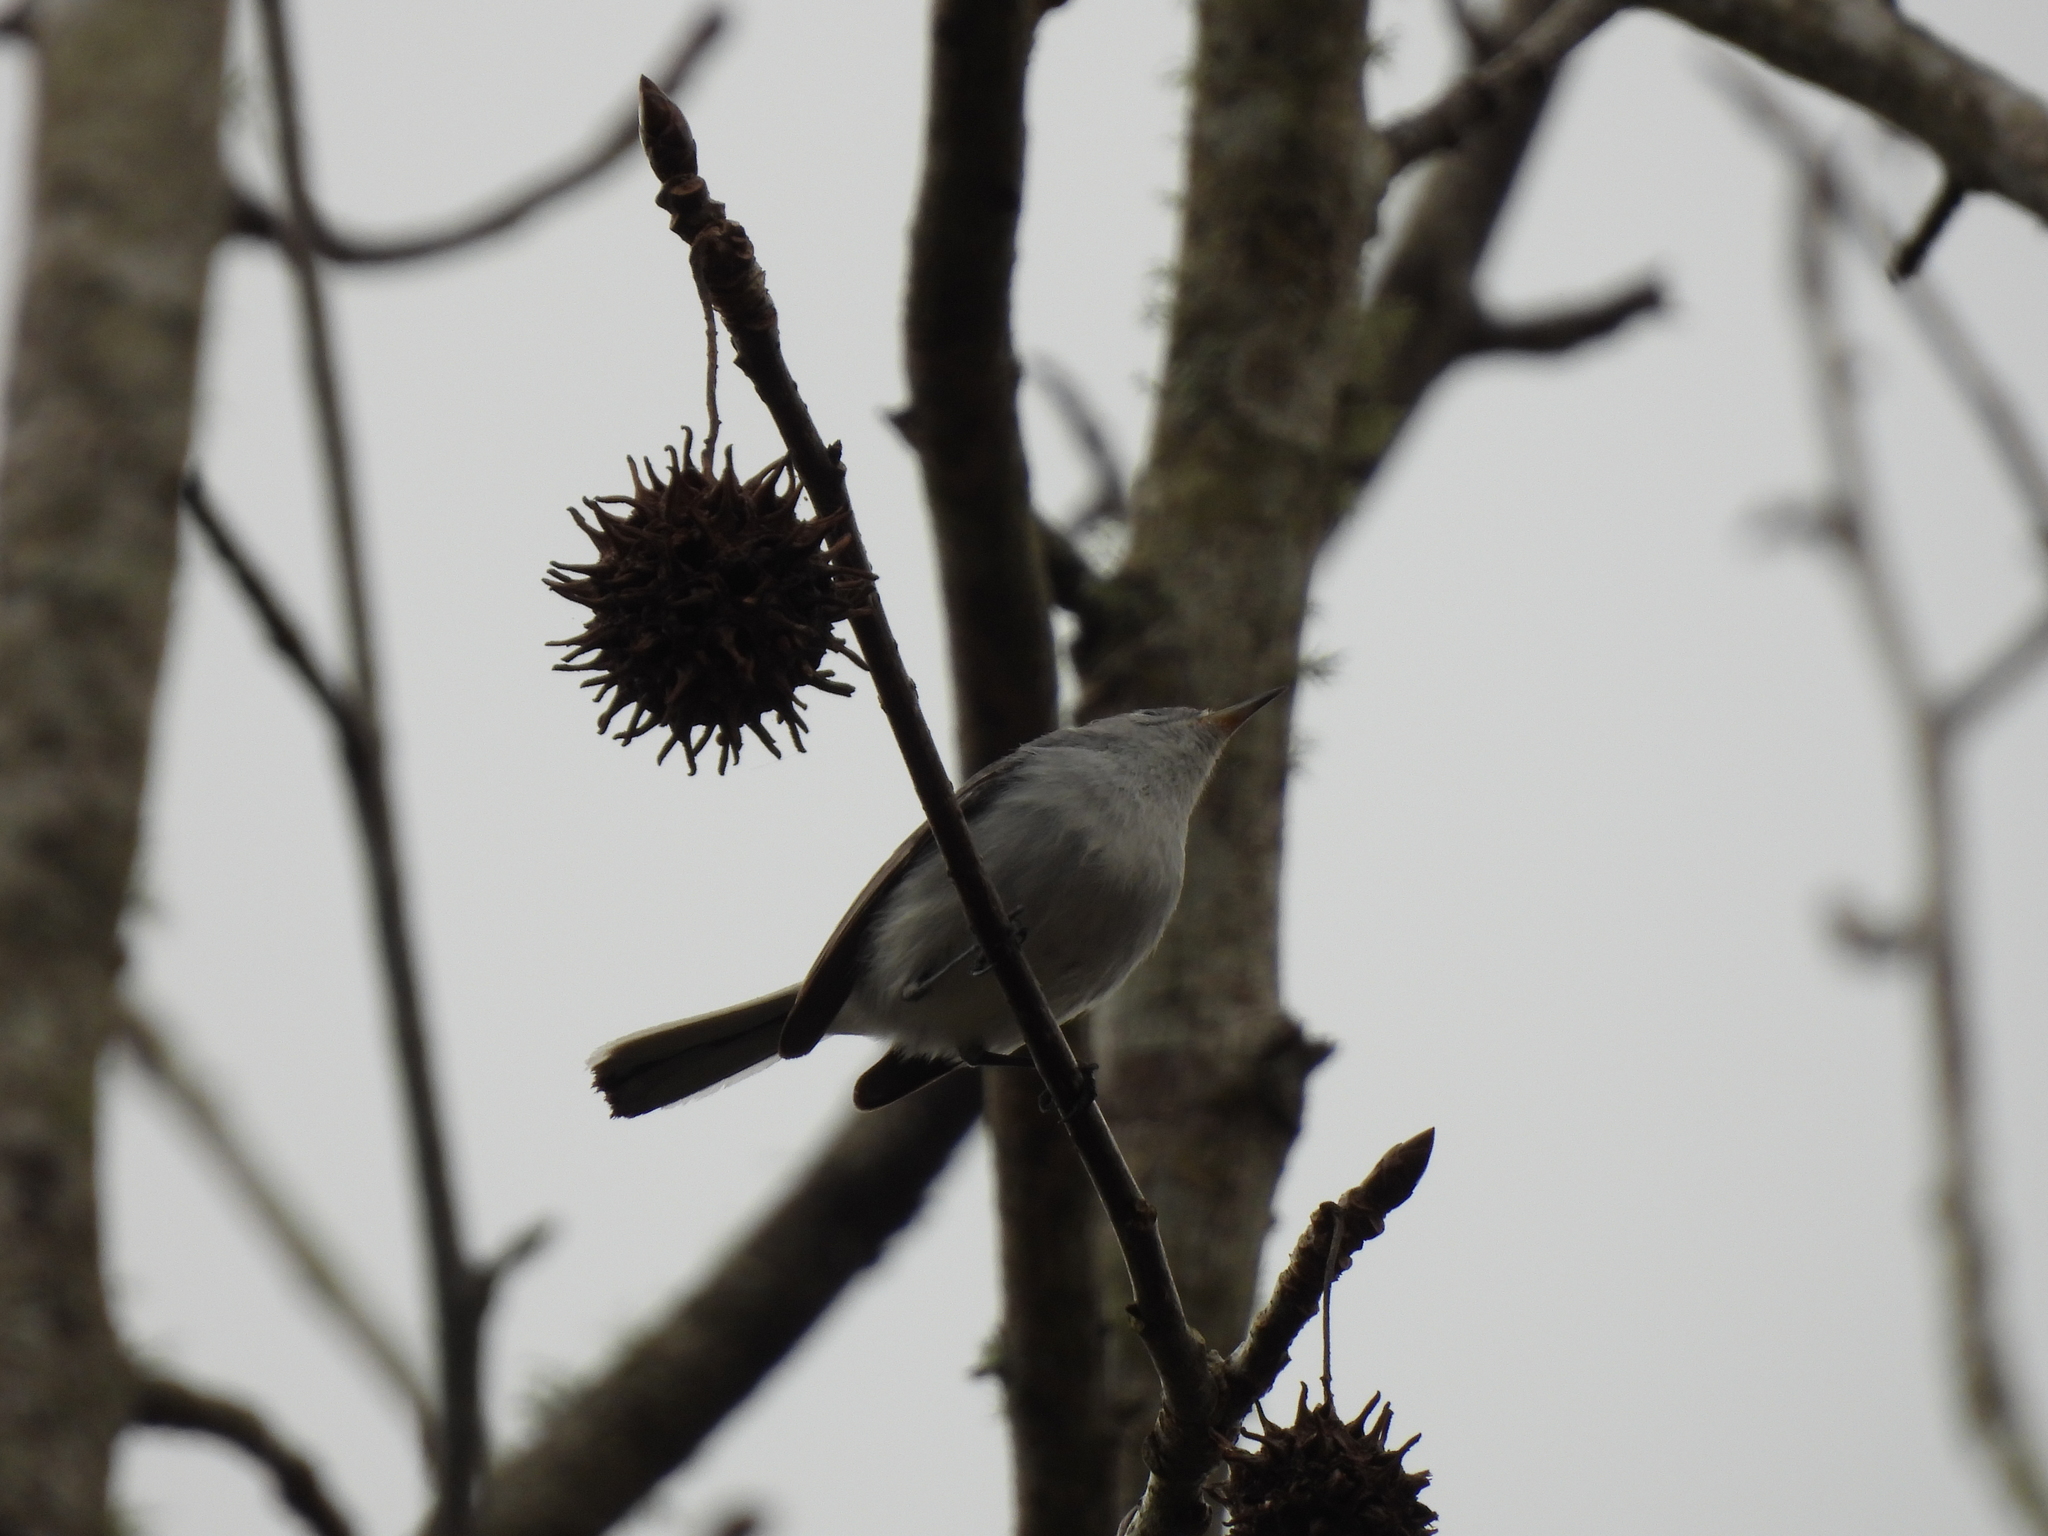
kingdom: Animalia
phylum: Chordata
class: Aves
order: Passeriformes
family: Polioptilidae
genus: Polioptila
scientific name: Polioptila caerulea
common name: Blue-gray gnatcatcher
